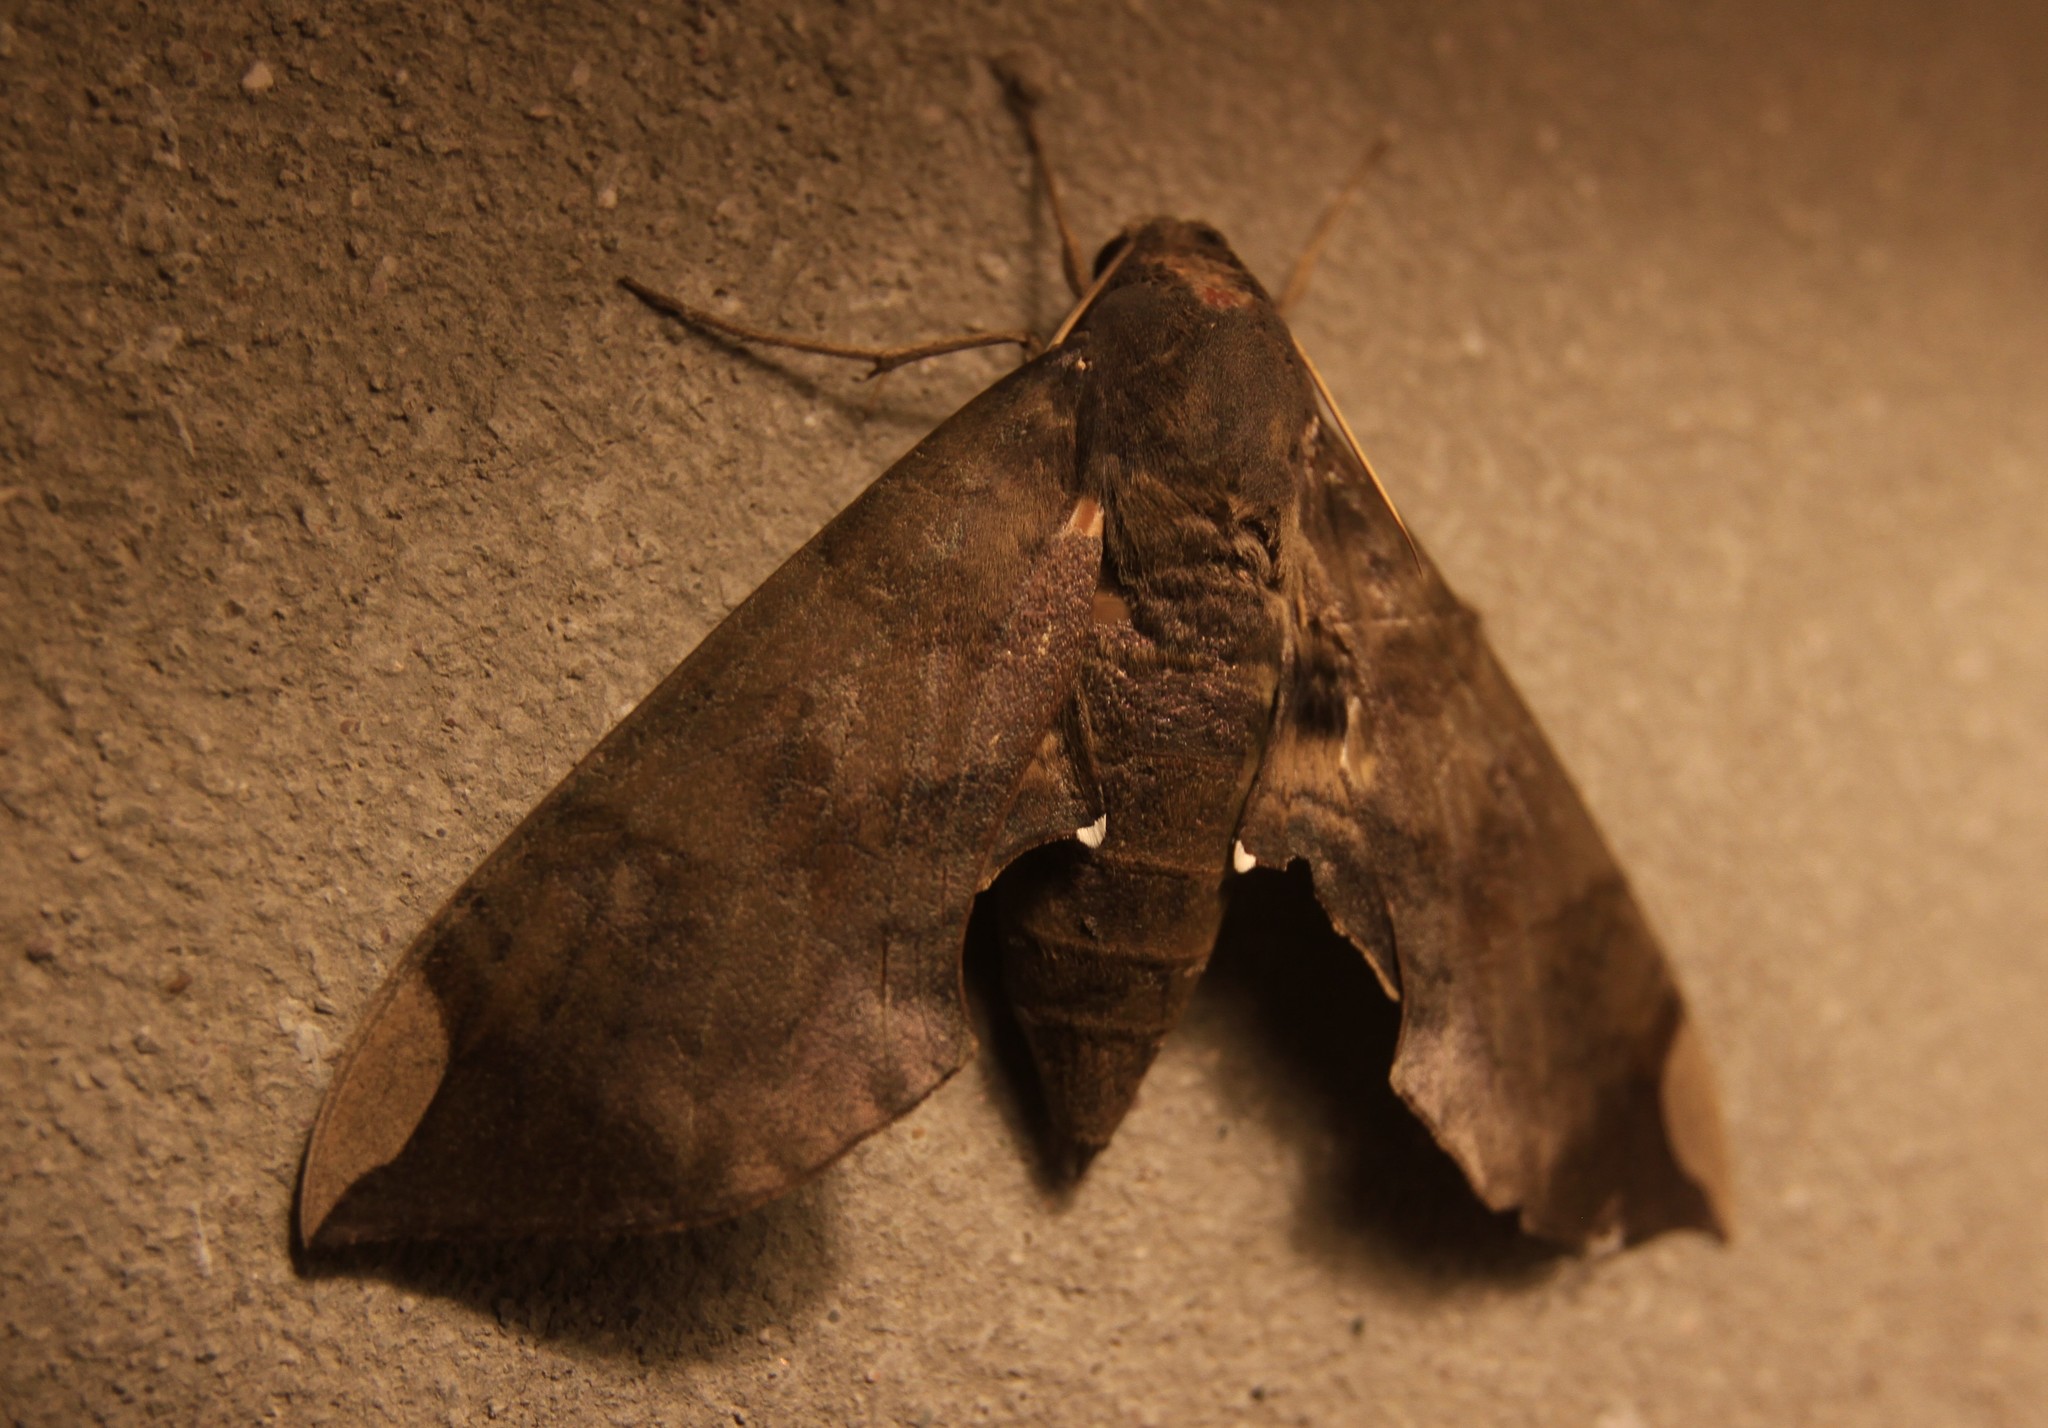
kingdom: Animalia
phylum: Arthropoda
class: Insecta
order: Lepidoptera
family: Sphingidae
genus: Pachylia
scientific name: Pachylia ficus
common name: Fig sphinx
